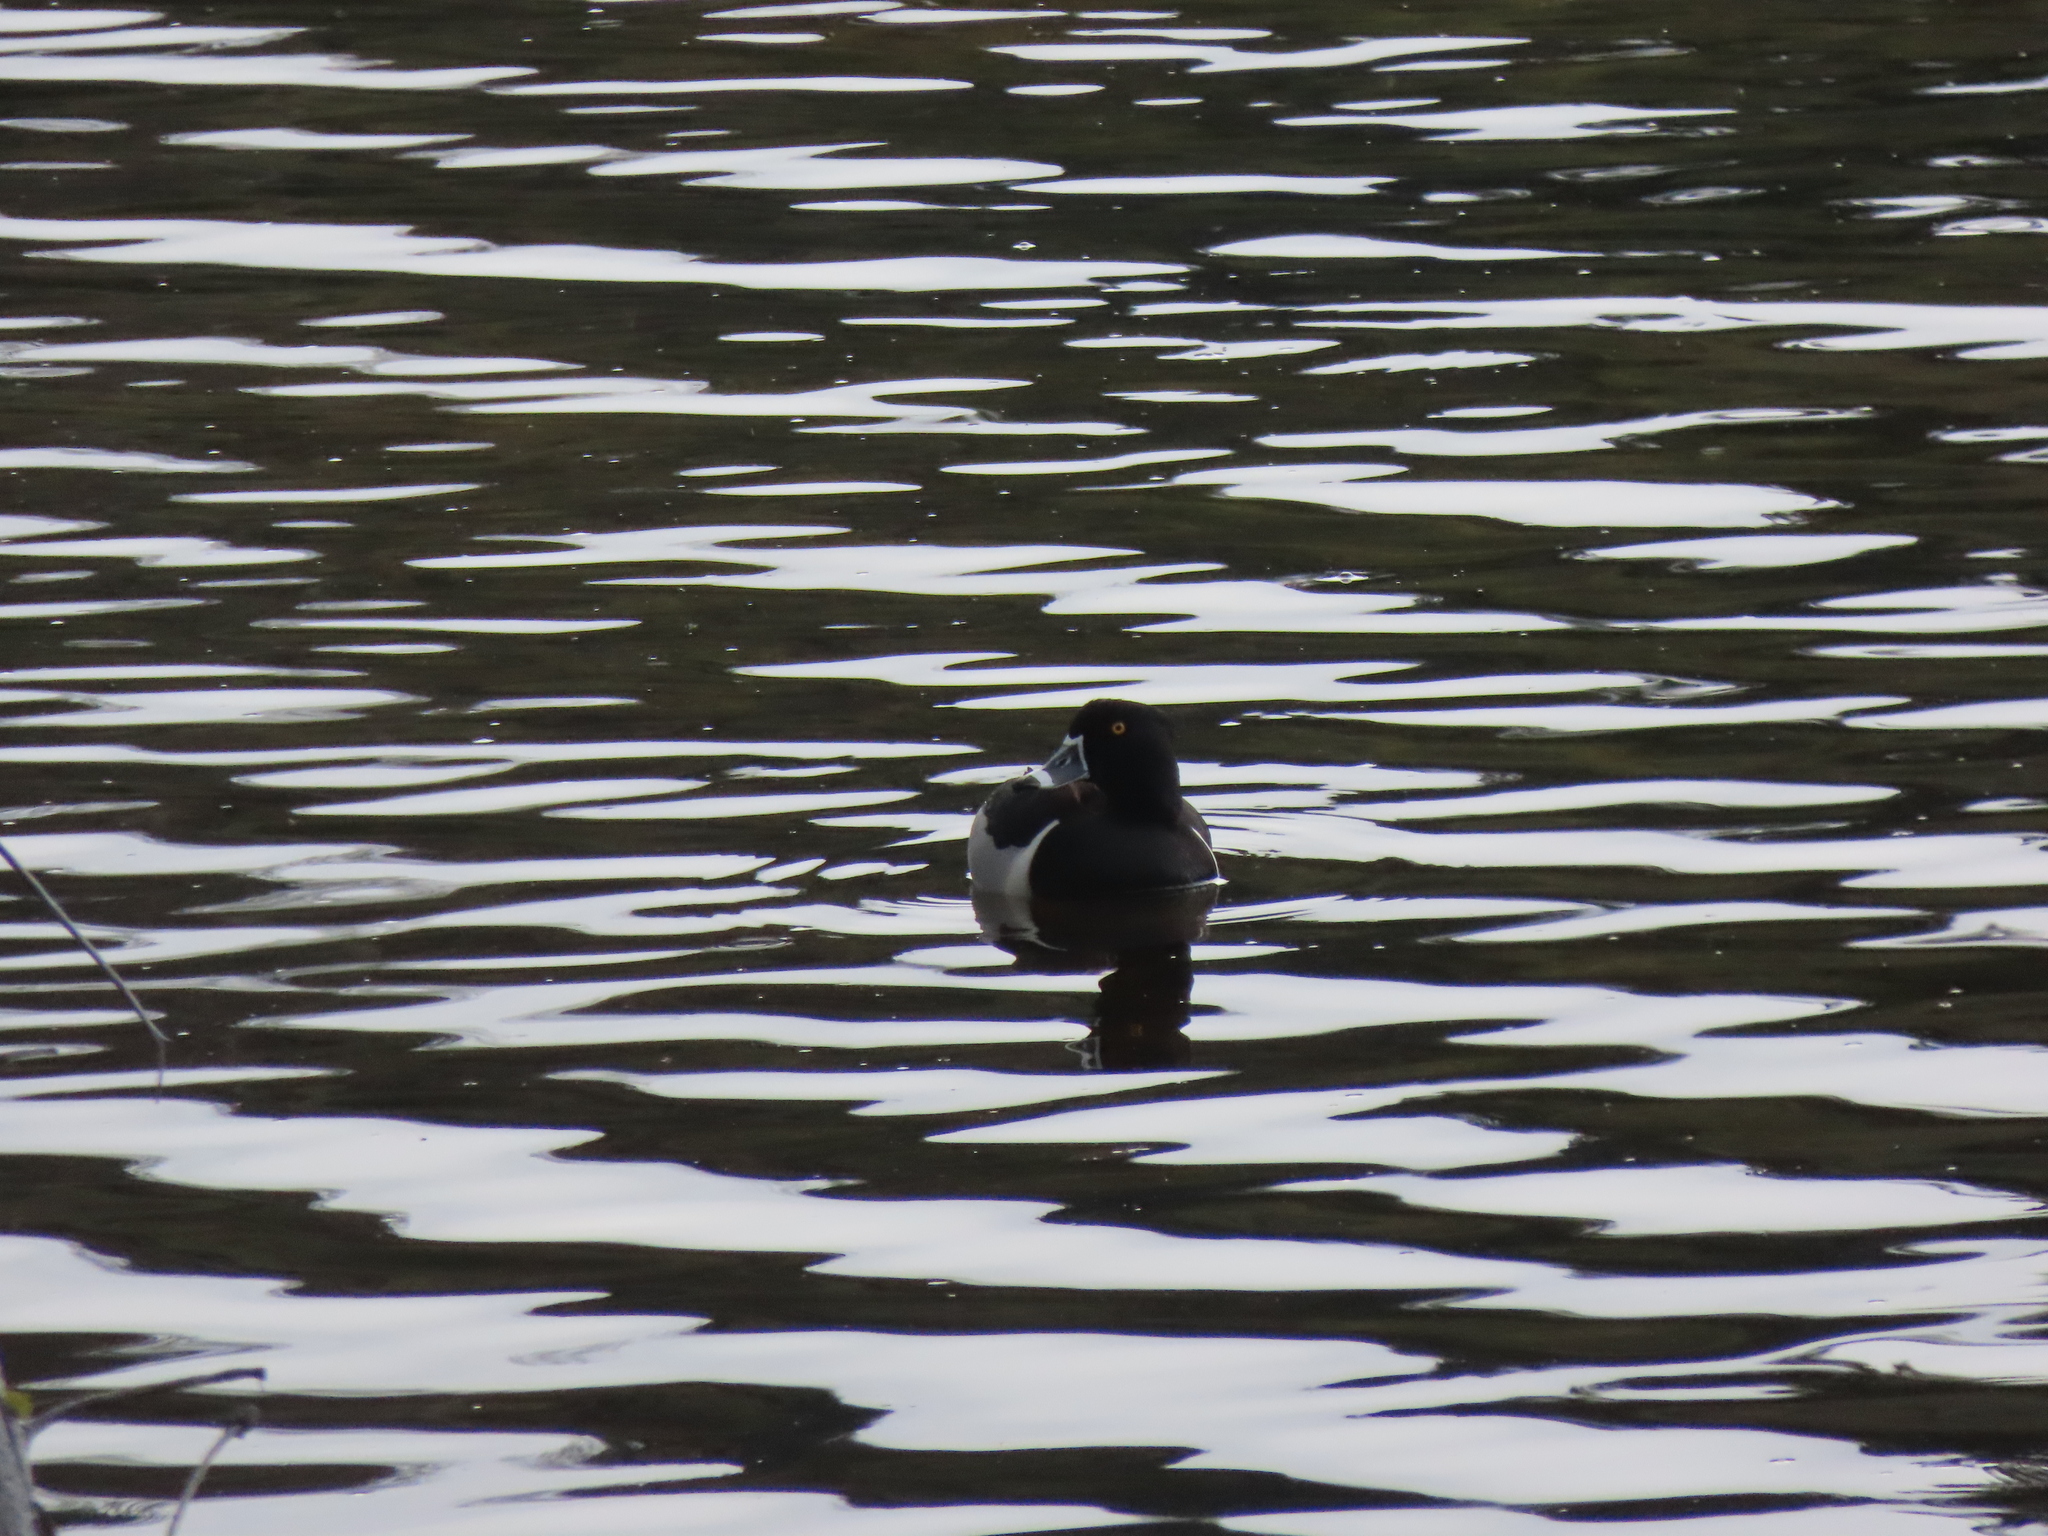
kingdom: Animalia
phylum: Chordata
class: Aves
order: Anseriformes
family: Anatidae
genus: Aythya
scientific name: Aythya collaris
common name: Ring-necked duck
